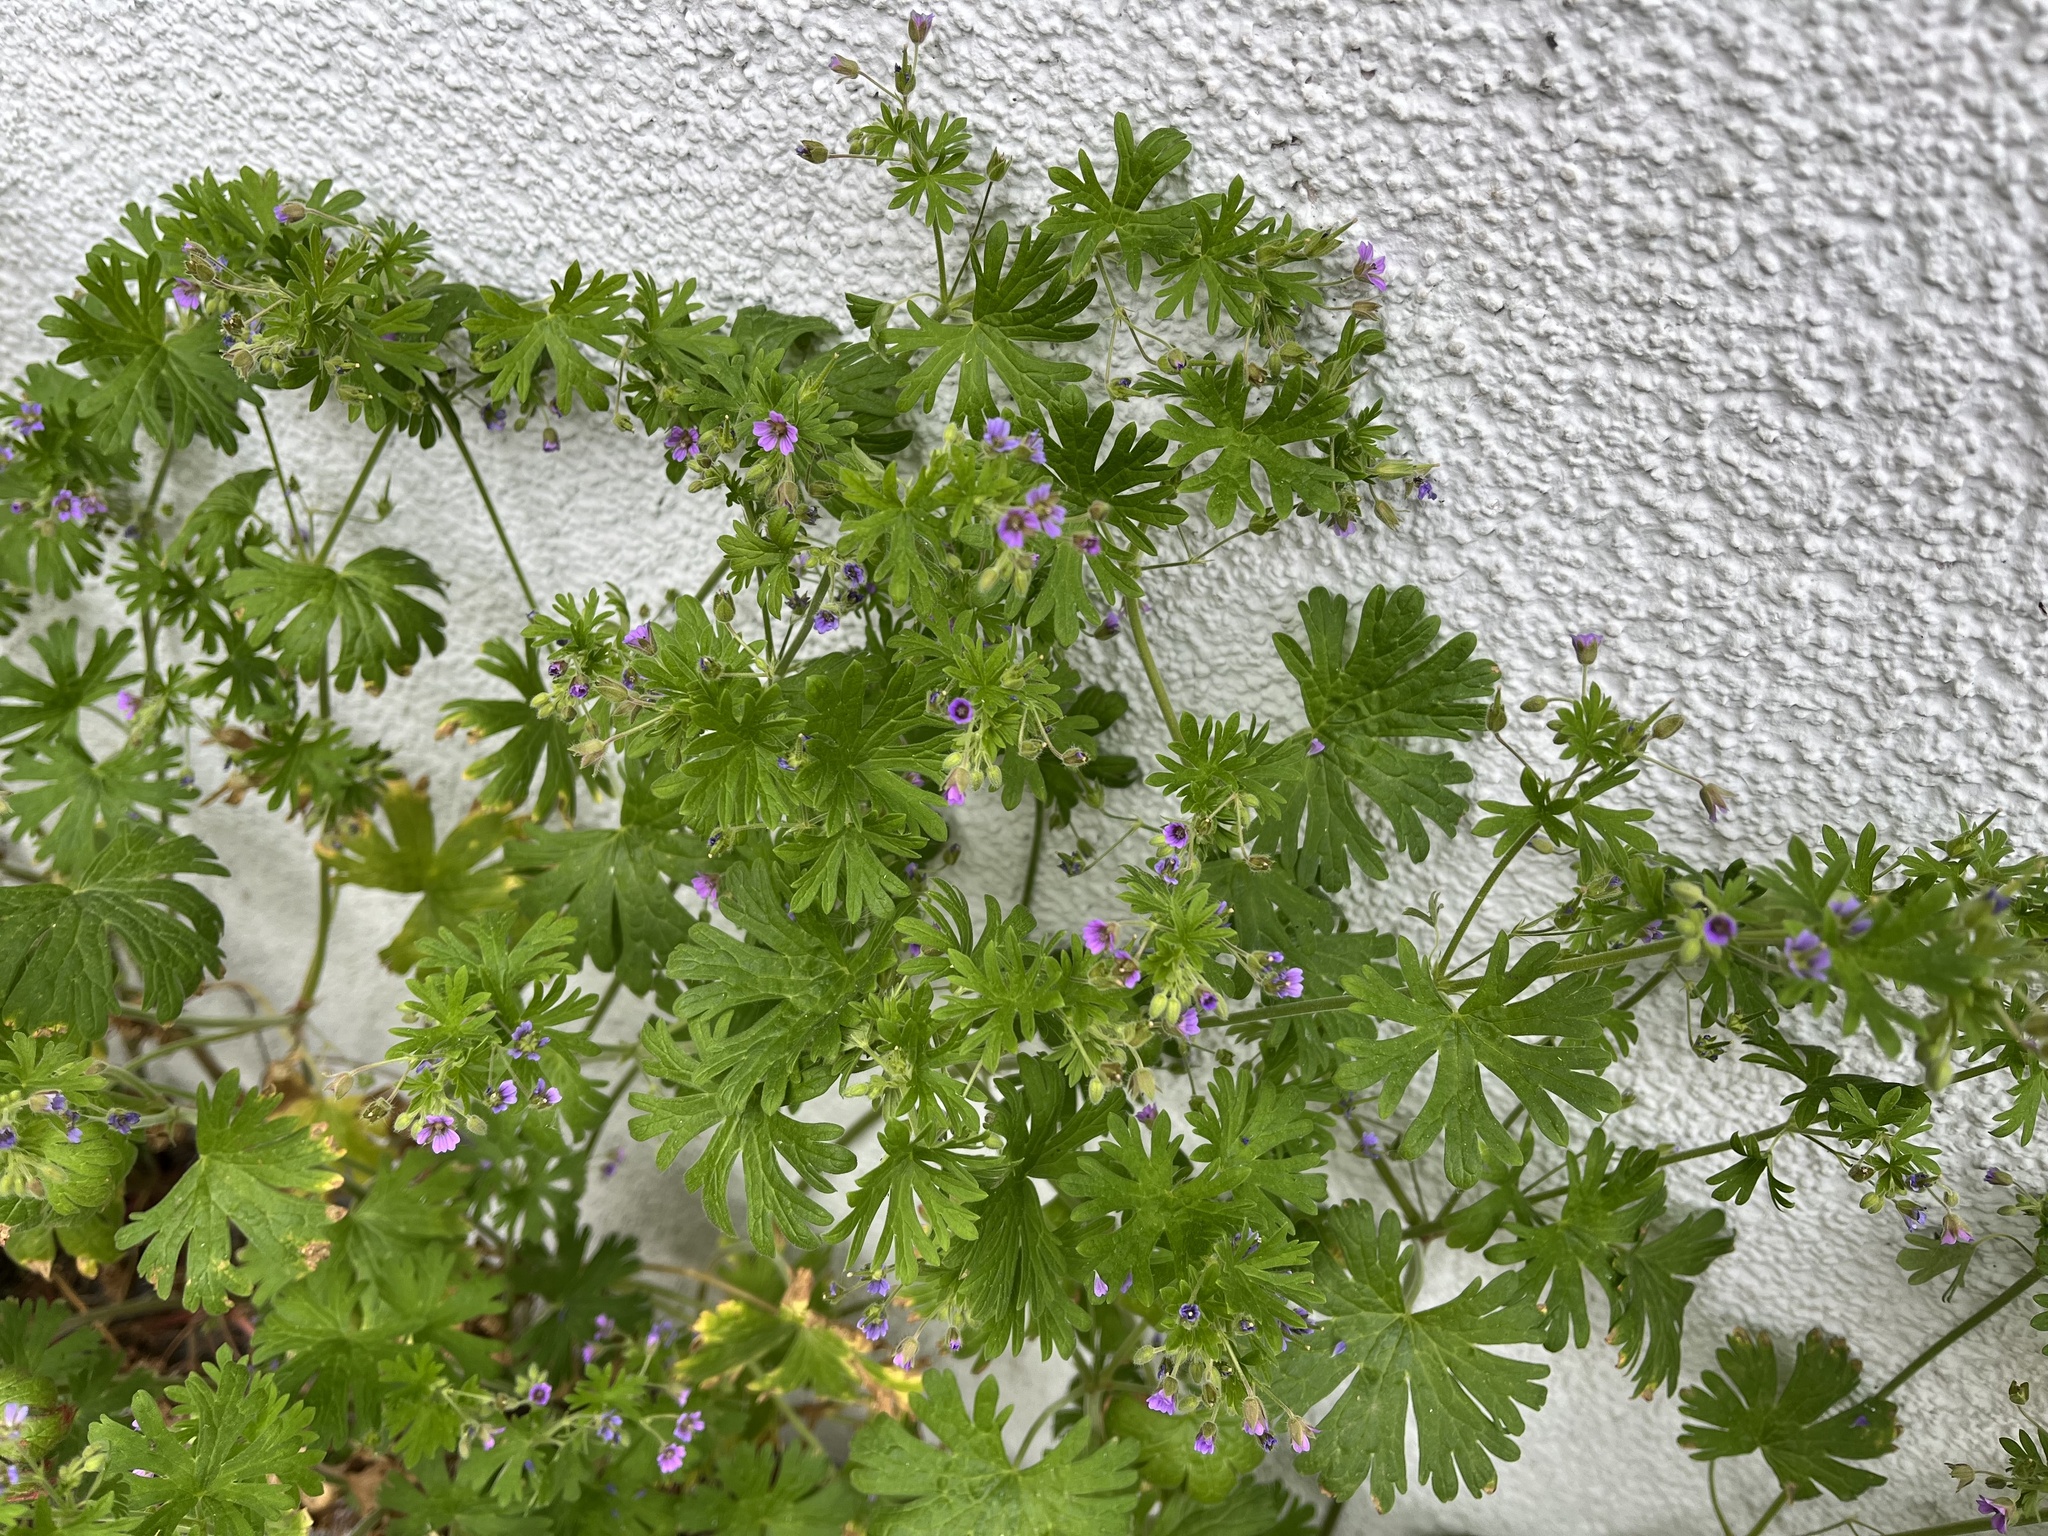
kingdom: Plantae
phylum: Tracheophyta
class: Magnoliopsida
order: Geraniales
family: Geraniaceae
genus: Geranium
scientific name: Geranium pusillum
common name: Small geranium
